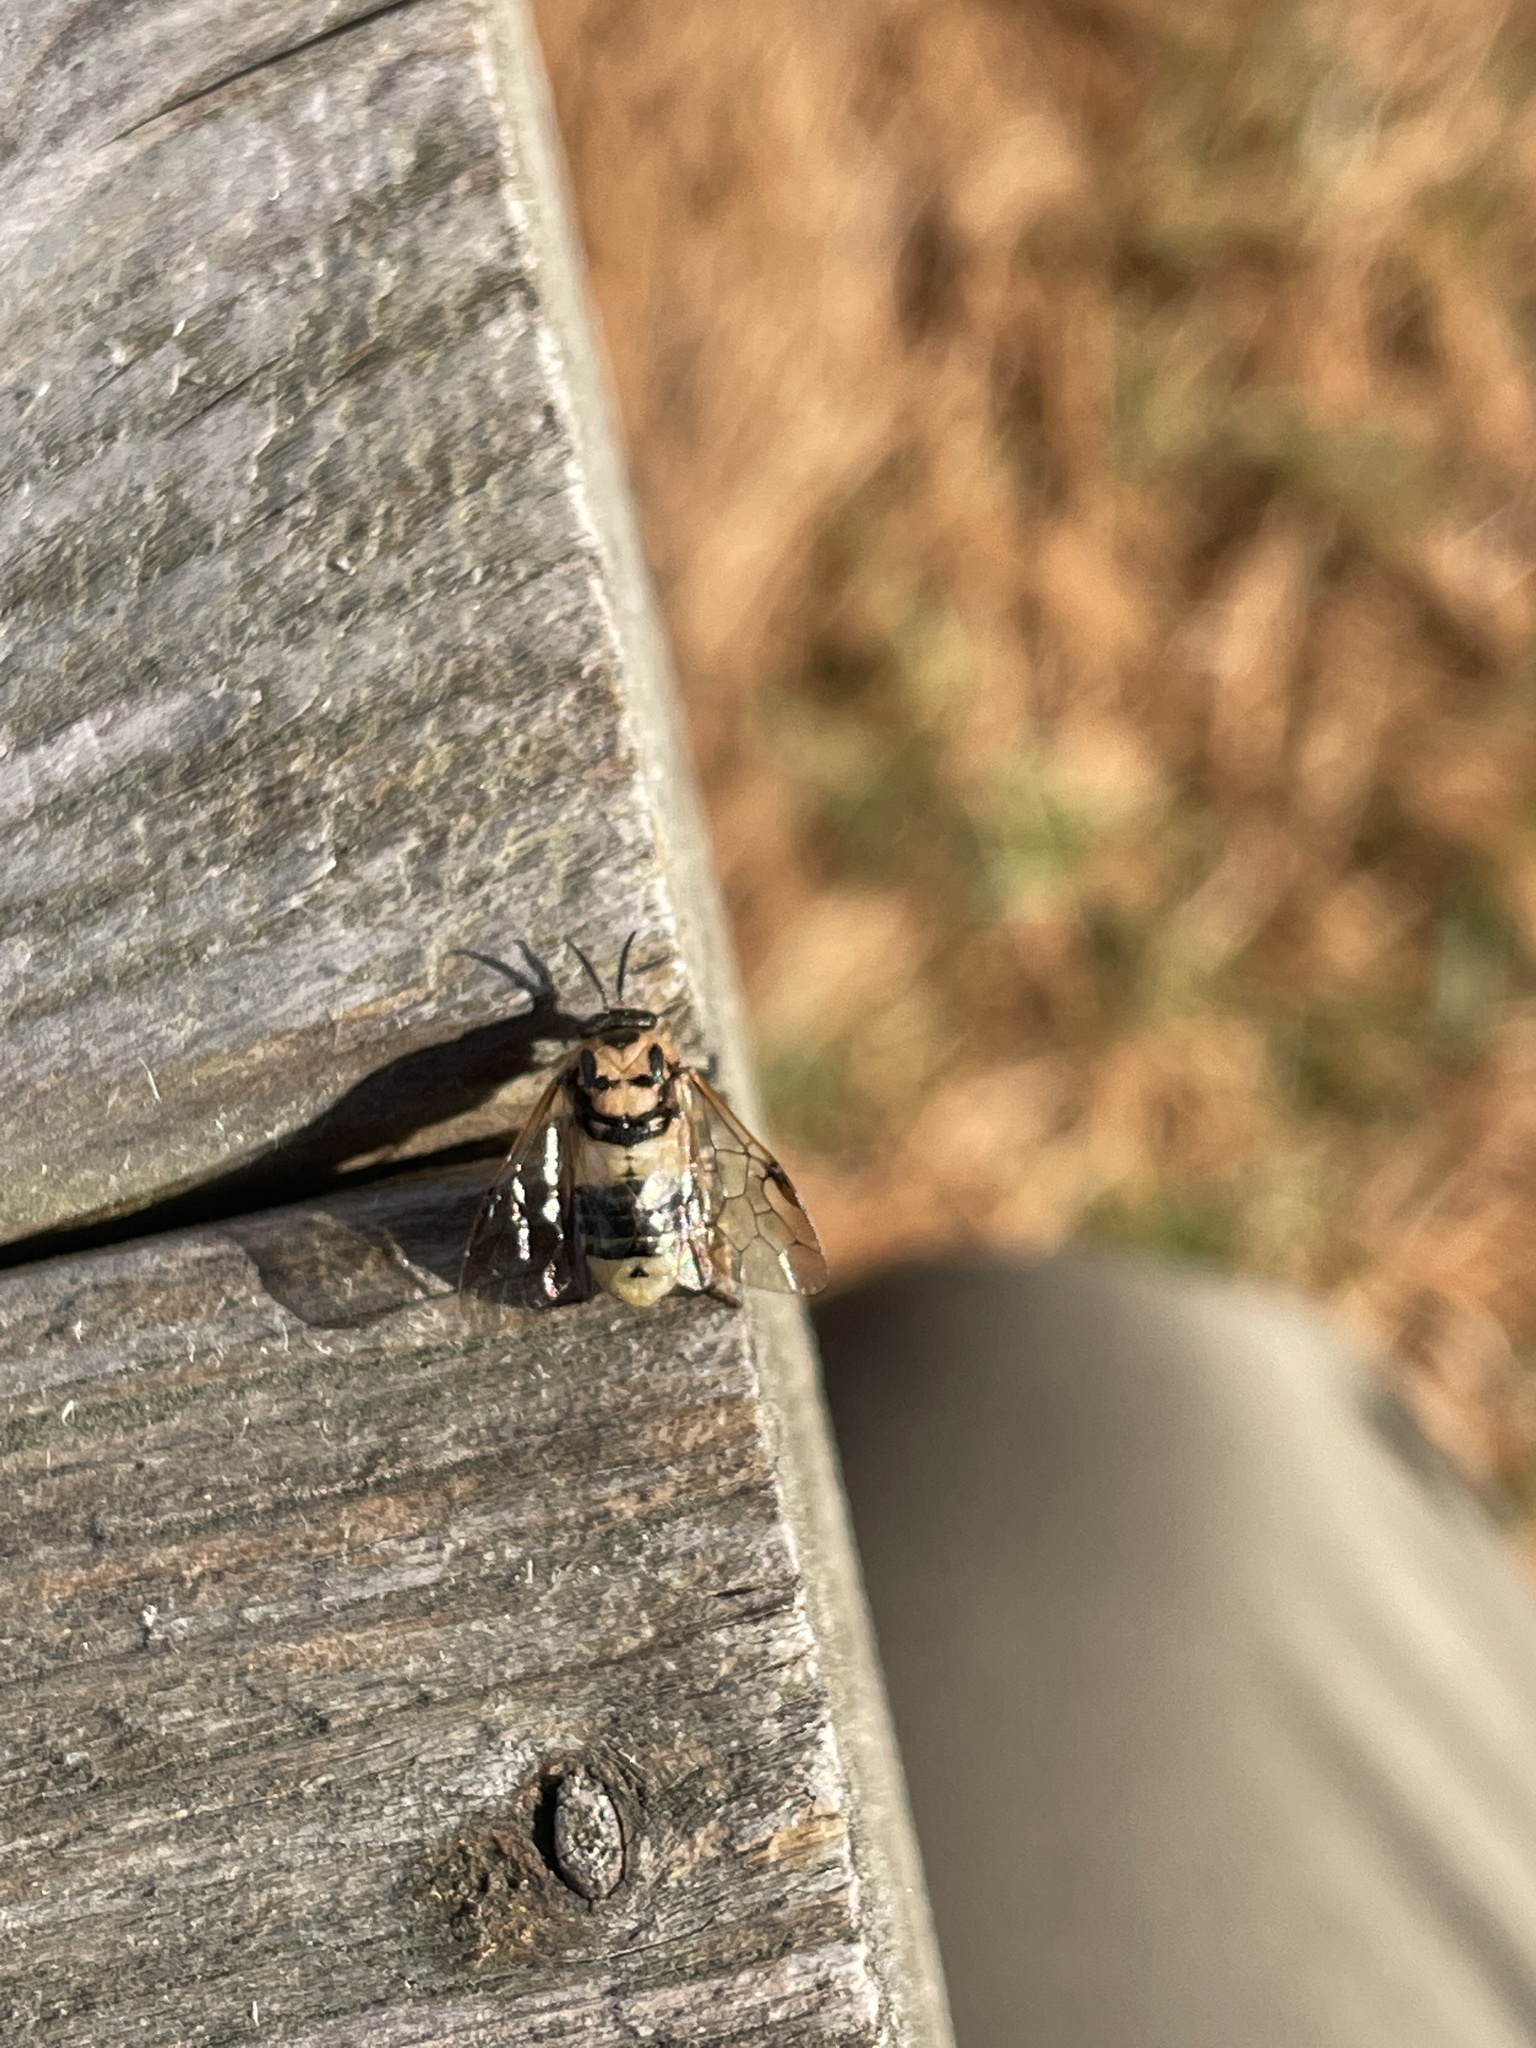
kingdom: Animalia
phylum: Arthropoda
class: Insecta
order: Hymenoptera
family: Diprionidae
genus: Diprion
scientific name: Diprion similis
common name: Pine sawfly
